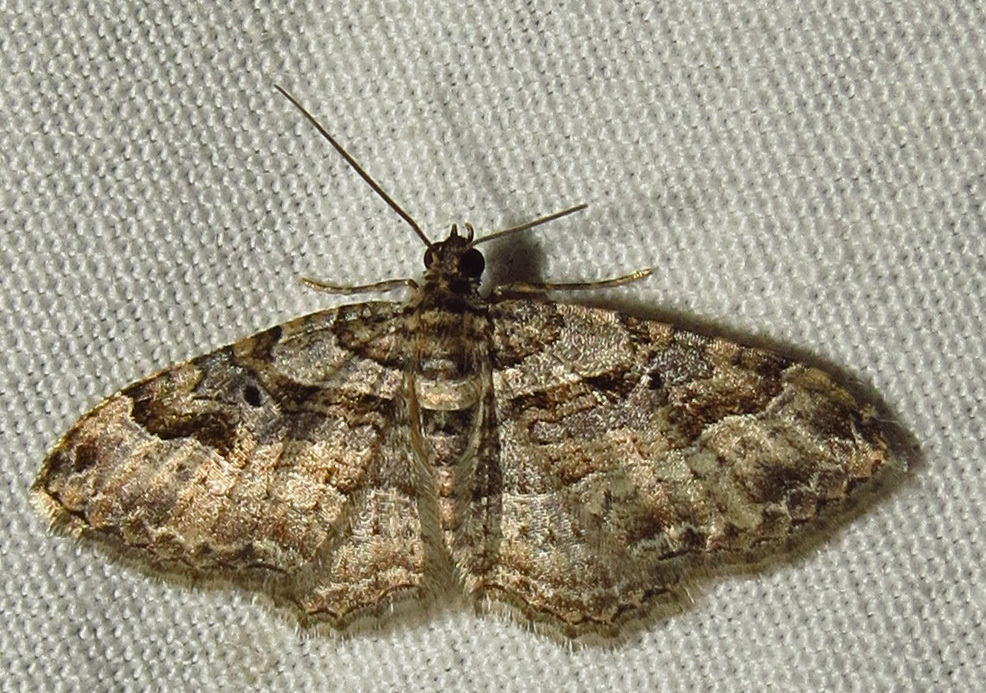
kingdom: Animalia
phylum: Arthropoda
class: Insecta
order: Lepidoptera
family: Geometridae
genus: Costaconvexa
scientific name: Costaconvexa centrostrigaria
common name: Bent-line carpet
